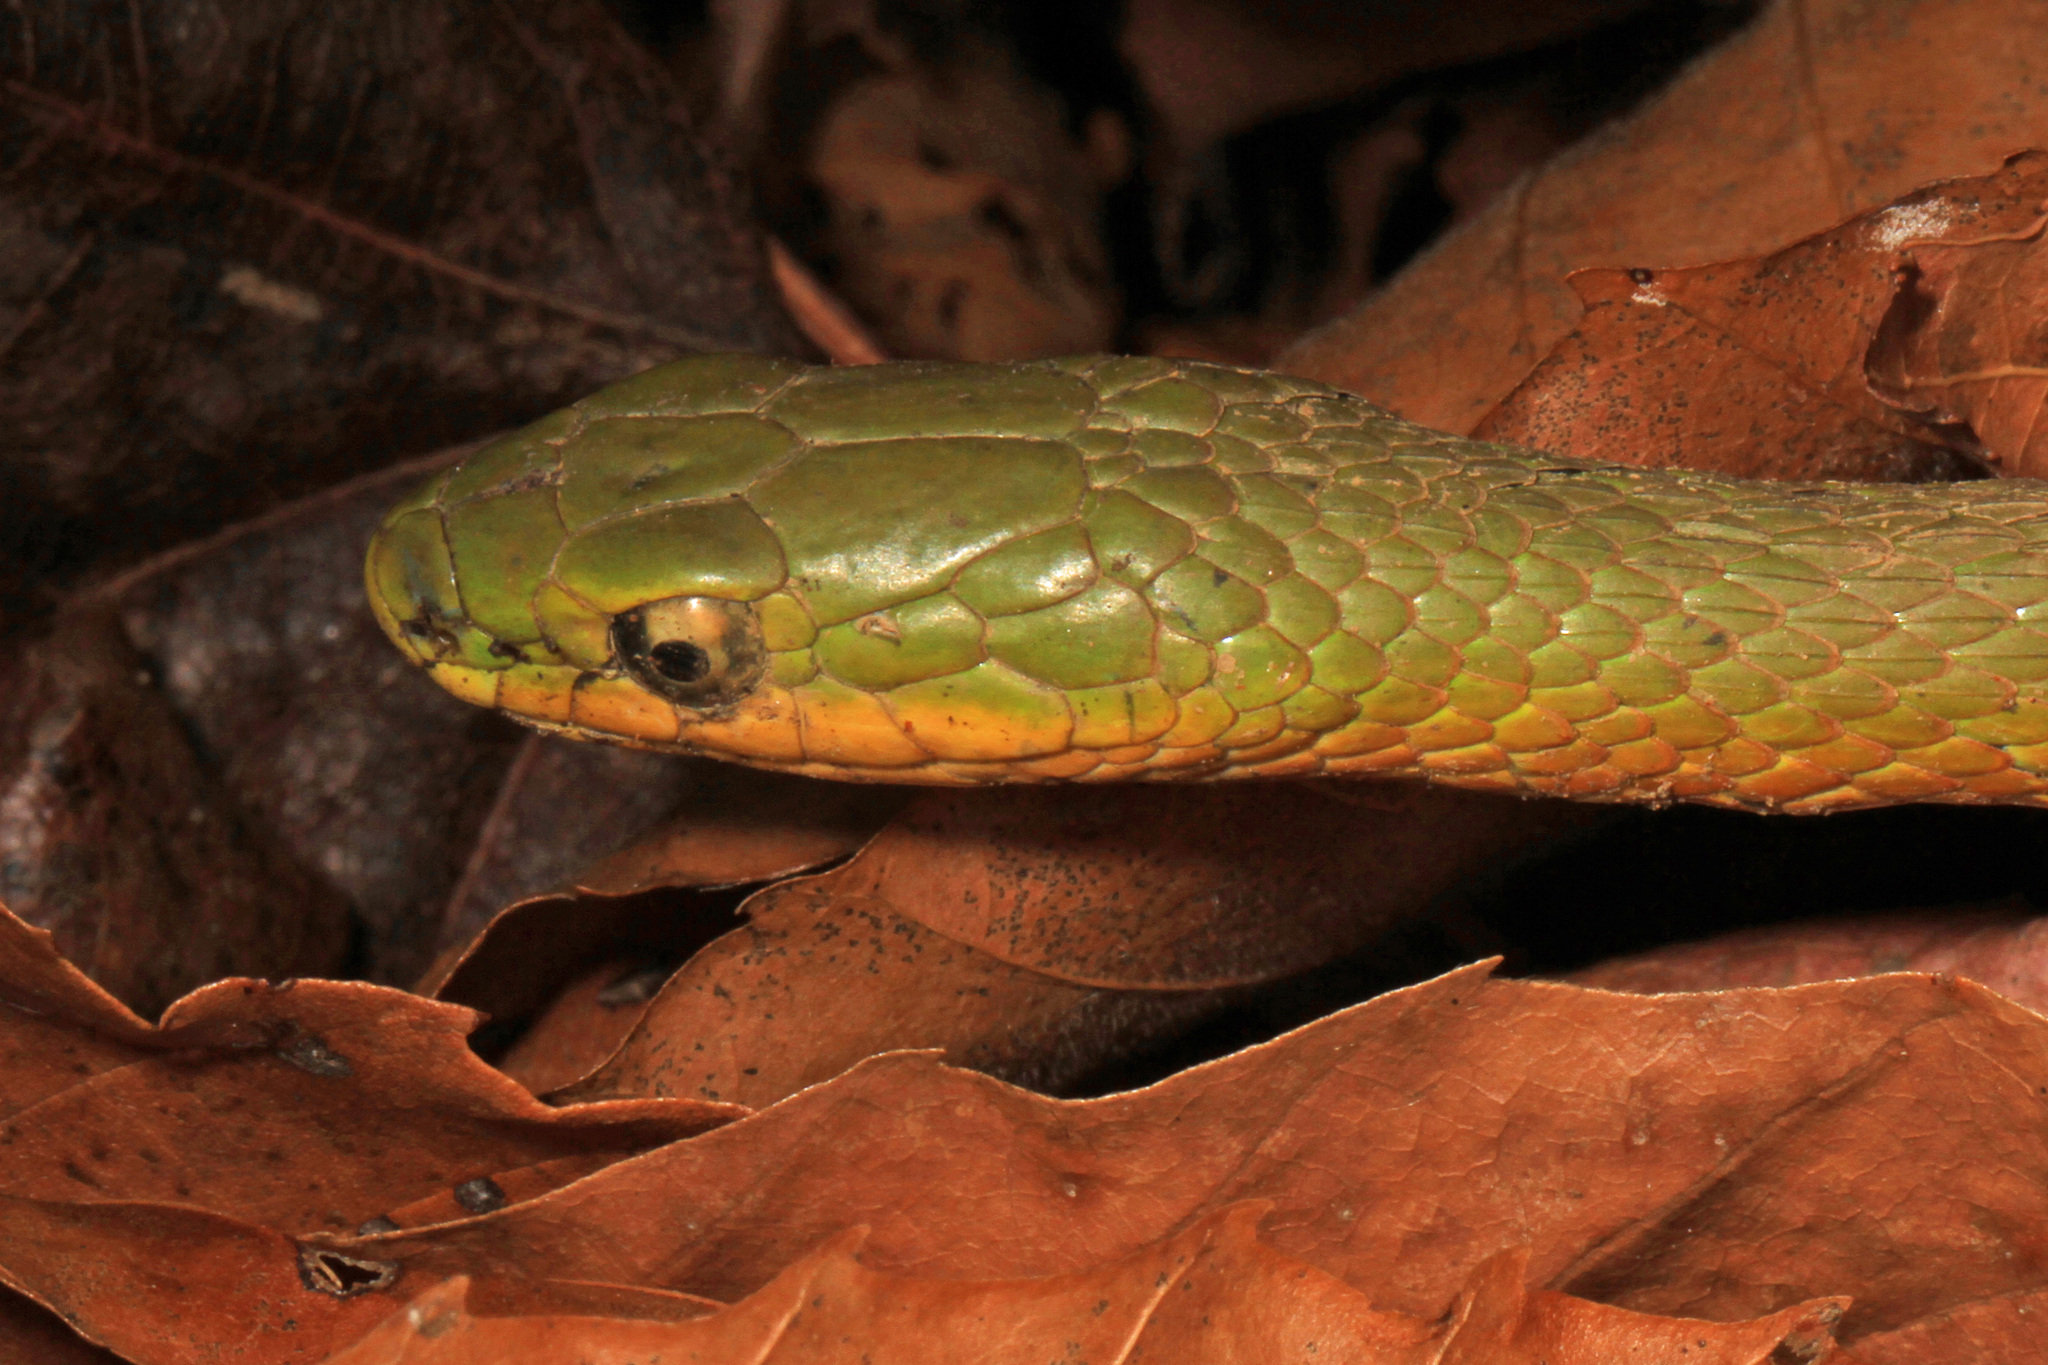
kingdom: Animalia
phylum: Chordata
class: Squamata
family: Colubridae
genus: Opheodrys
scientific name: Opheodrys aestivus
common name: Rough greensnake
